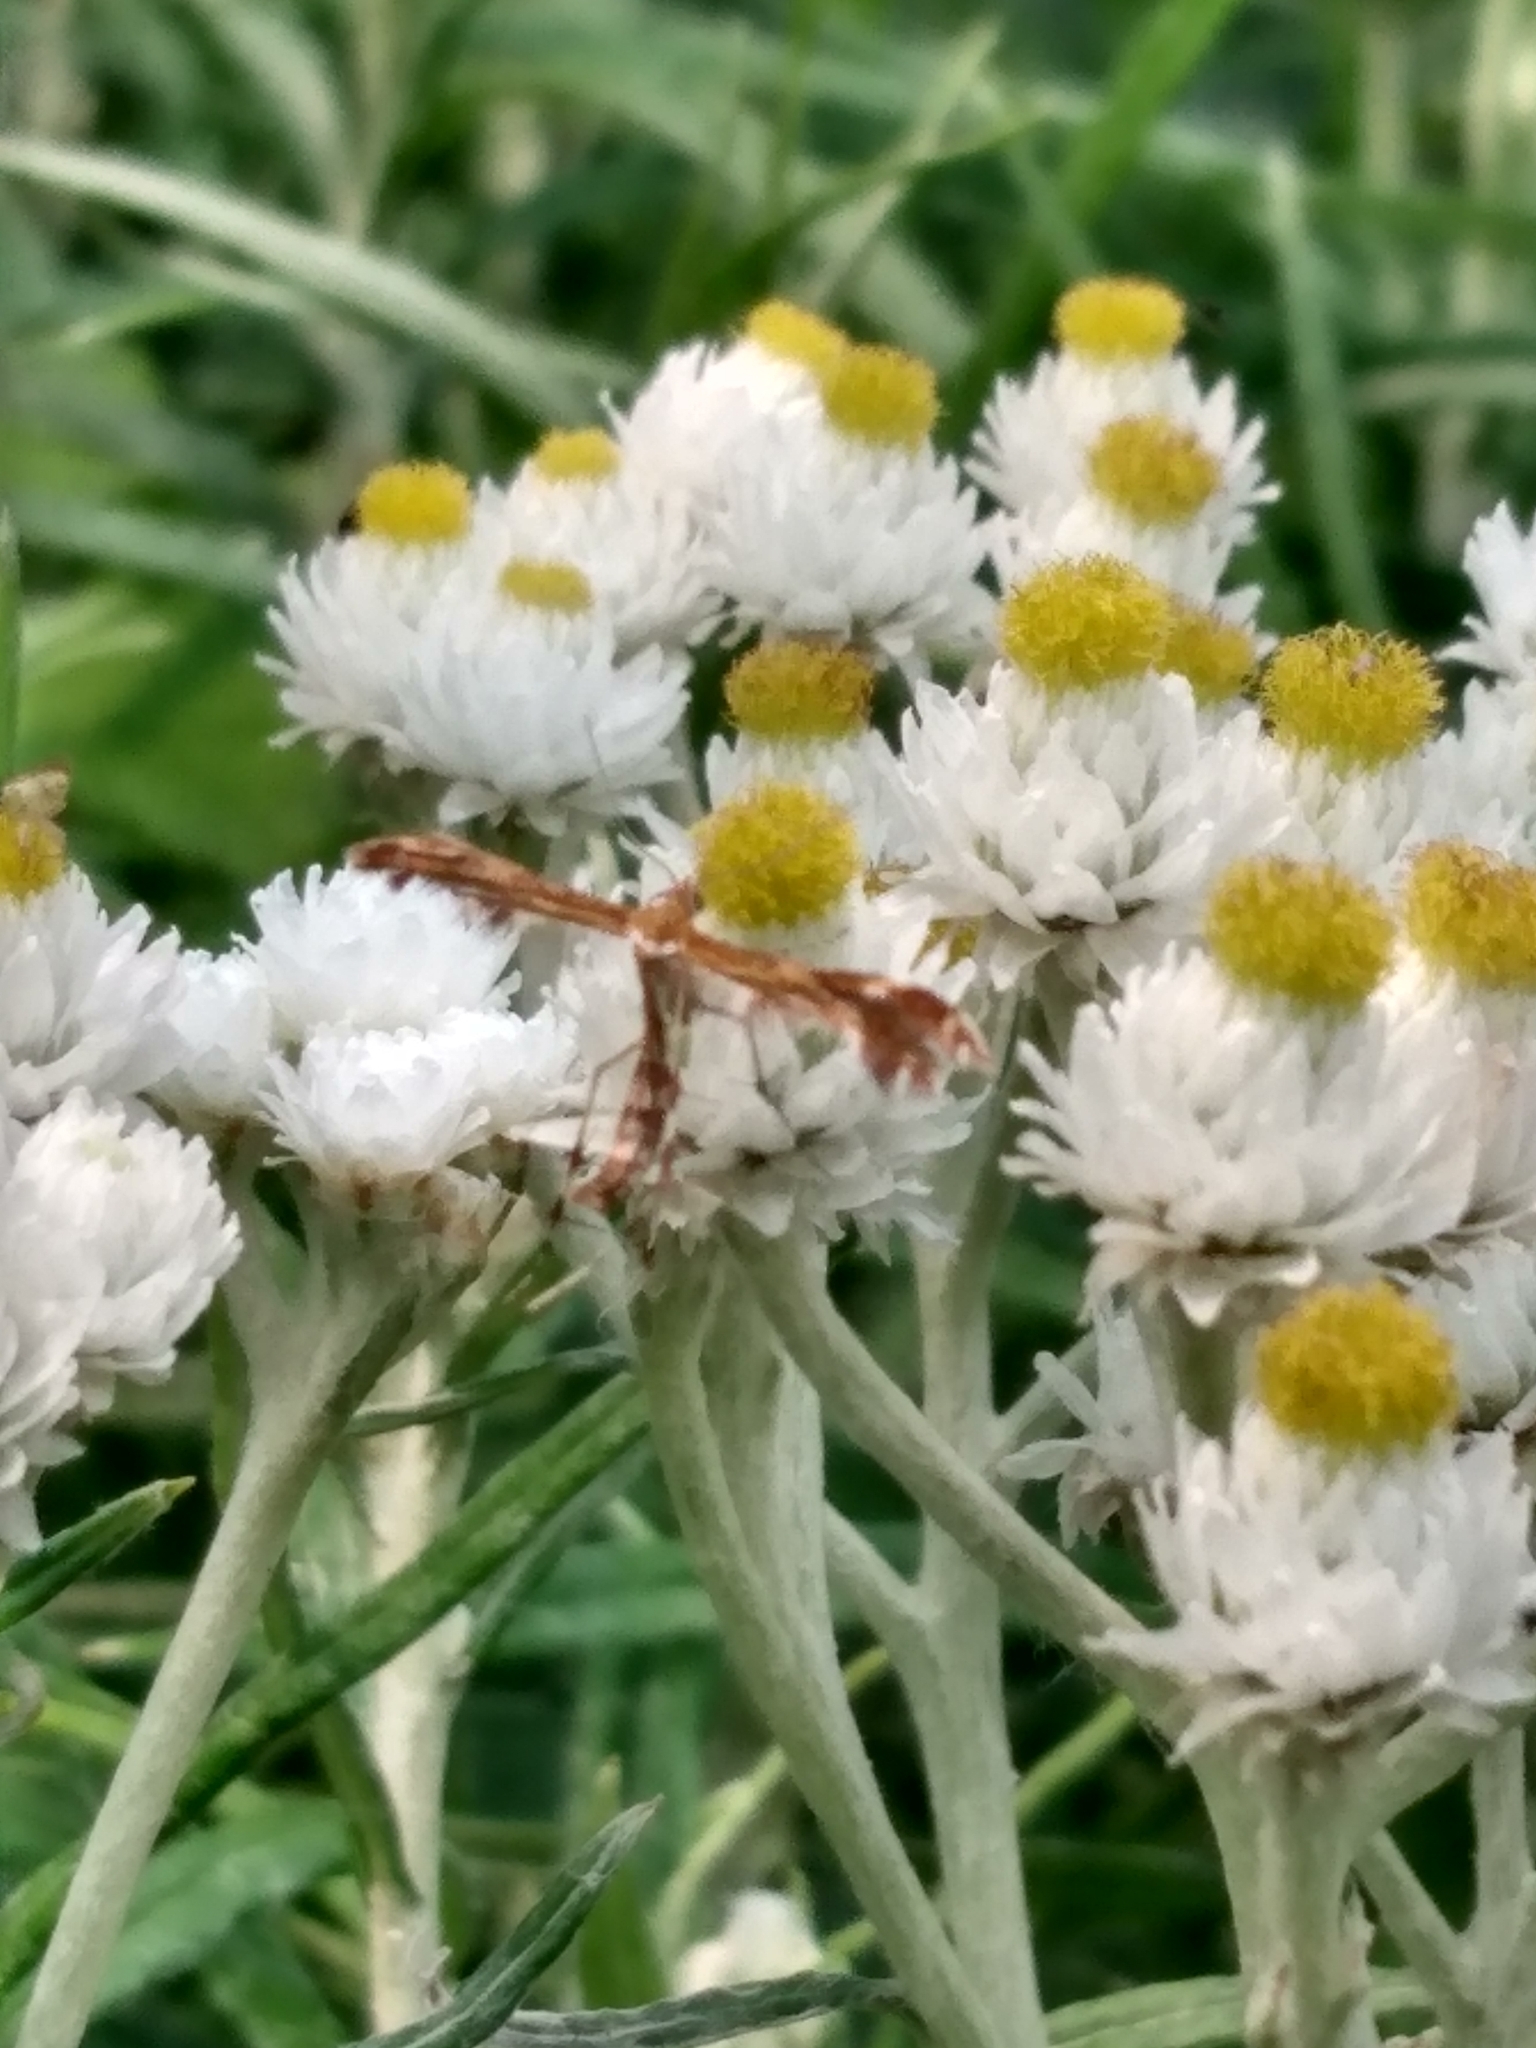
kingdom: Plantae
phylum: Tracheophyta
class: Magnoliopsida
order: Asterales
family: Asteraceae
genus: Anaphalis
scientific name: Anaphalis margaritacea
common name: Pearly everlasting
